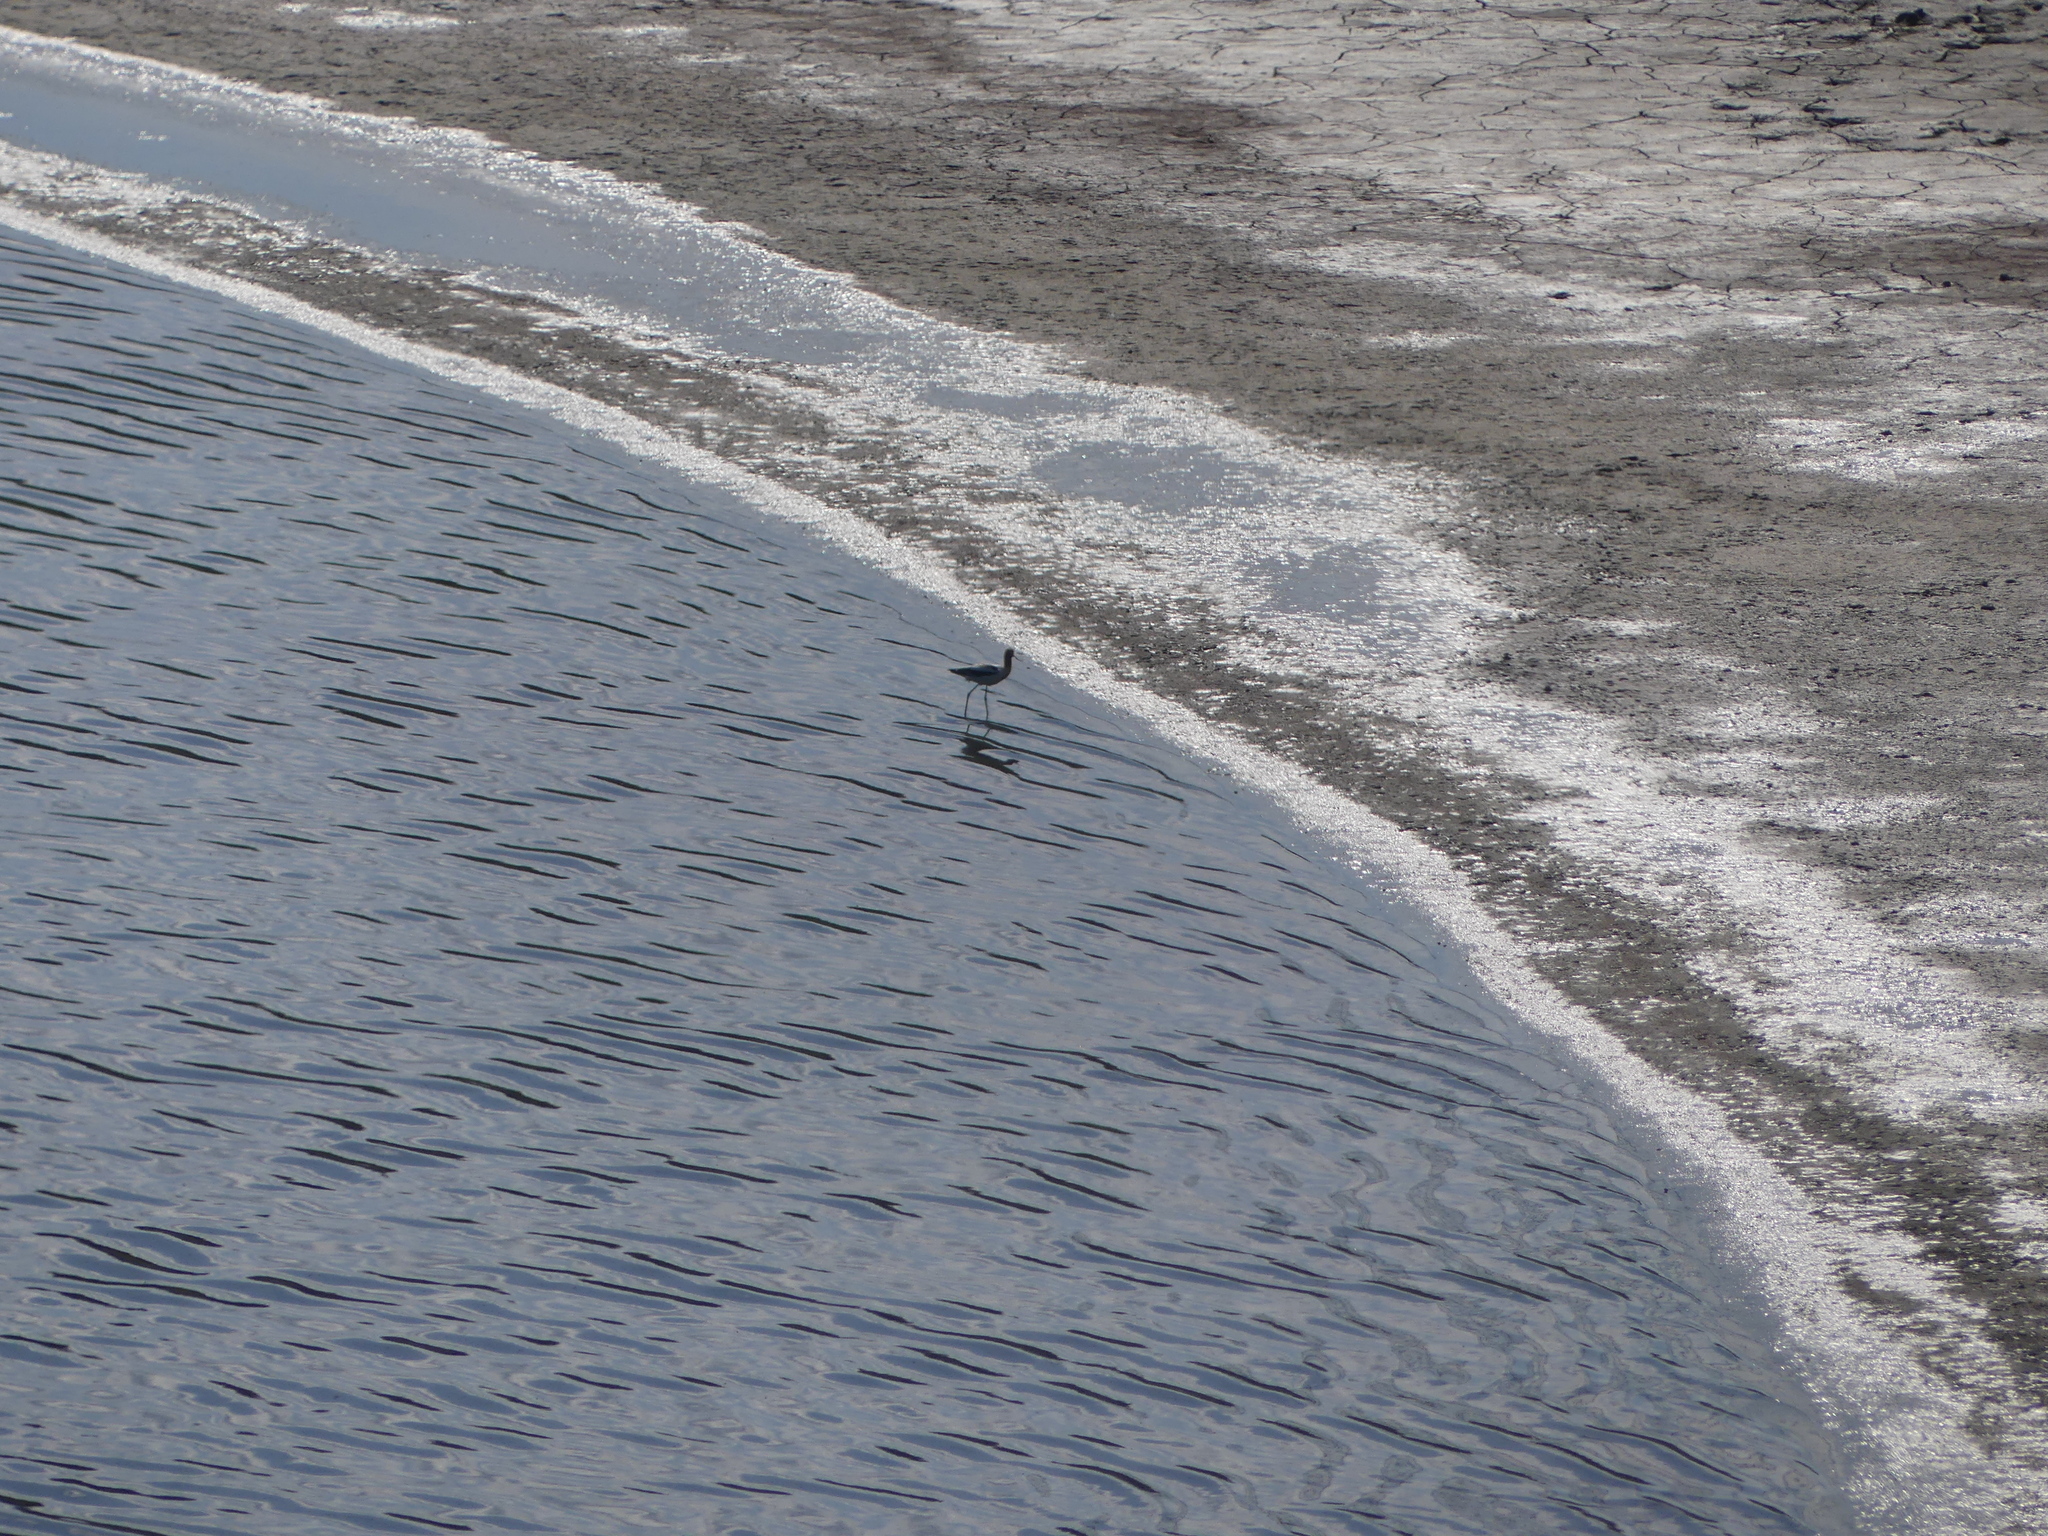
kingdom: Animalia
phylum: Chordata
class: Aves
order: Charadriiformes
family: Recurvirostridae
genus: Recurvirostra
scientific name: Recurvirostra americana
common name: American avocet
